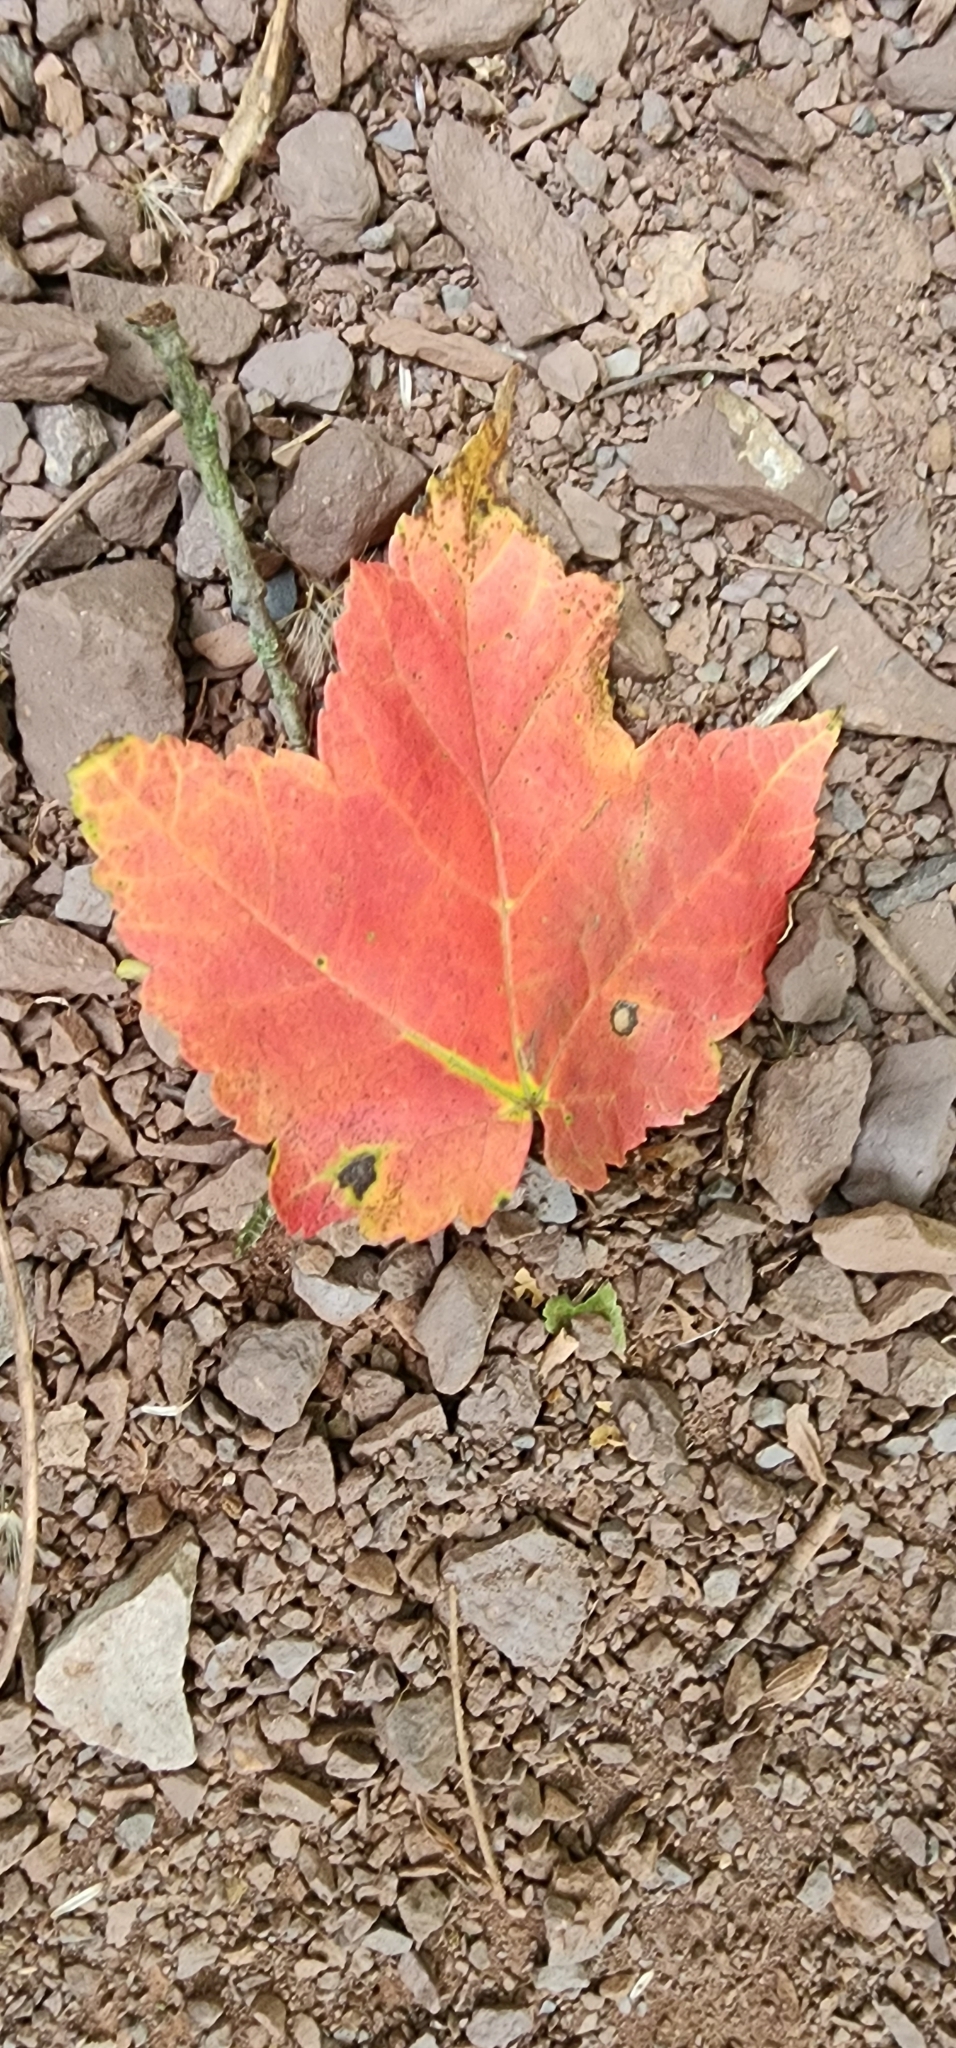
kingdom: Plantae
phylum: Tracheophyta
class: Magnoliopsida
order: Sapindales
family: Sapindaceae
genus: Acer
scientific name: Acer rubrum
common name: Red maple
